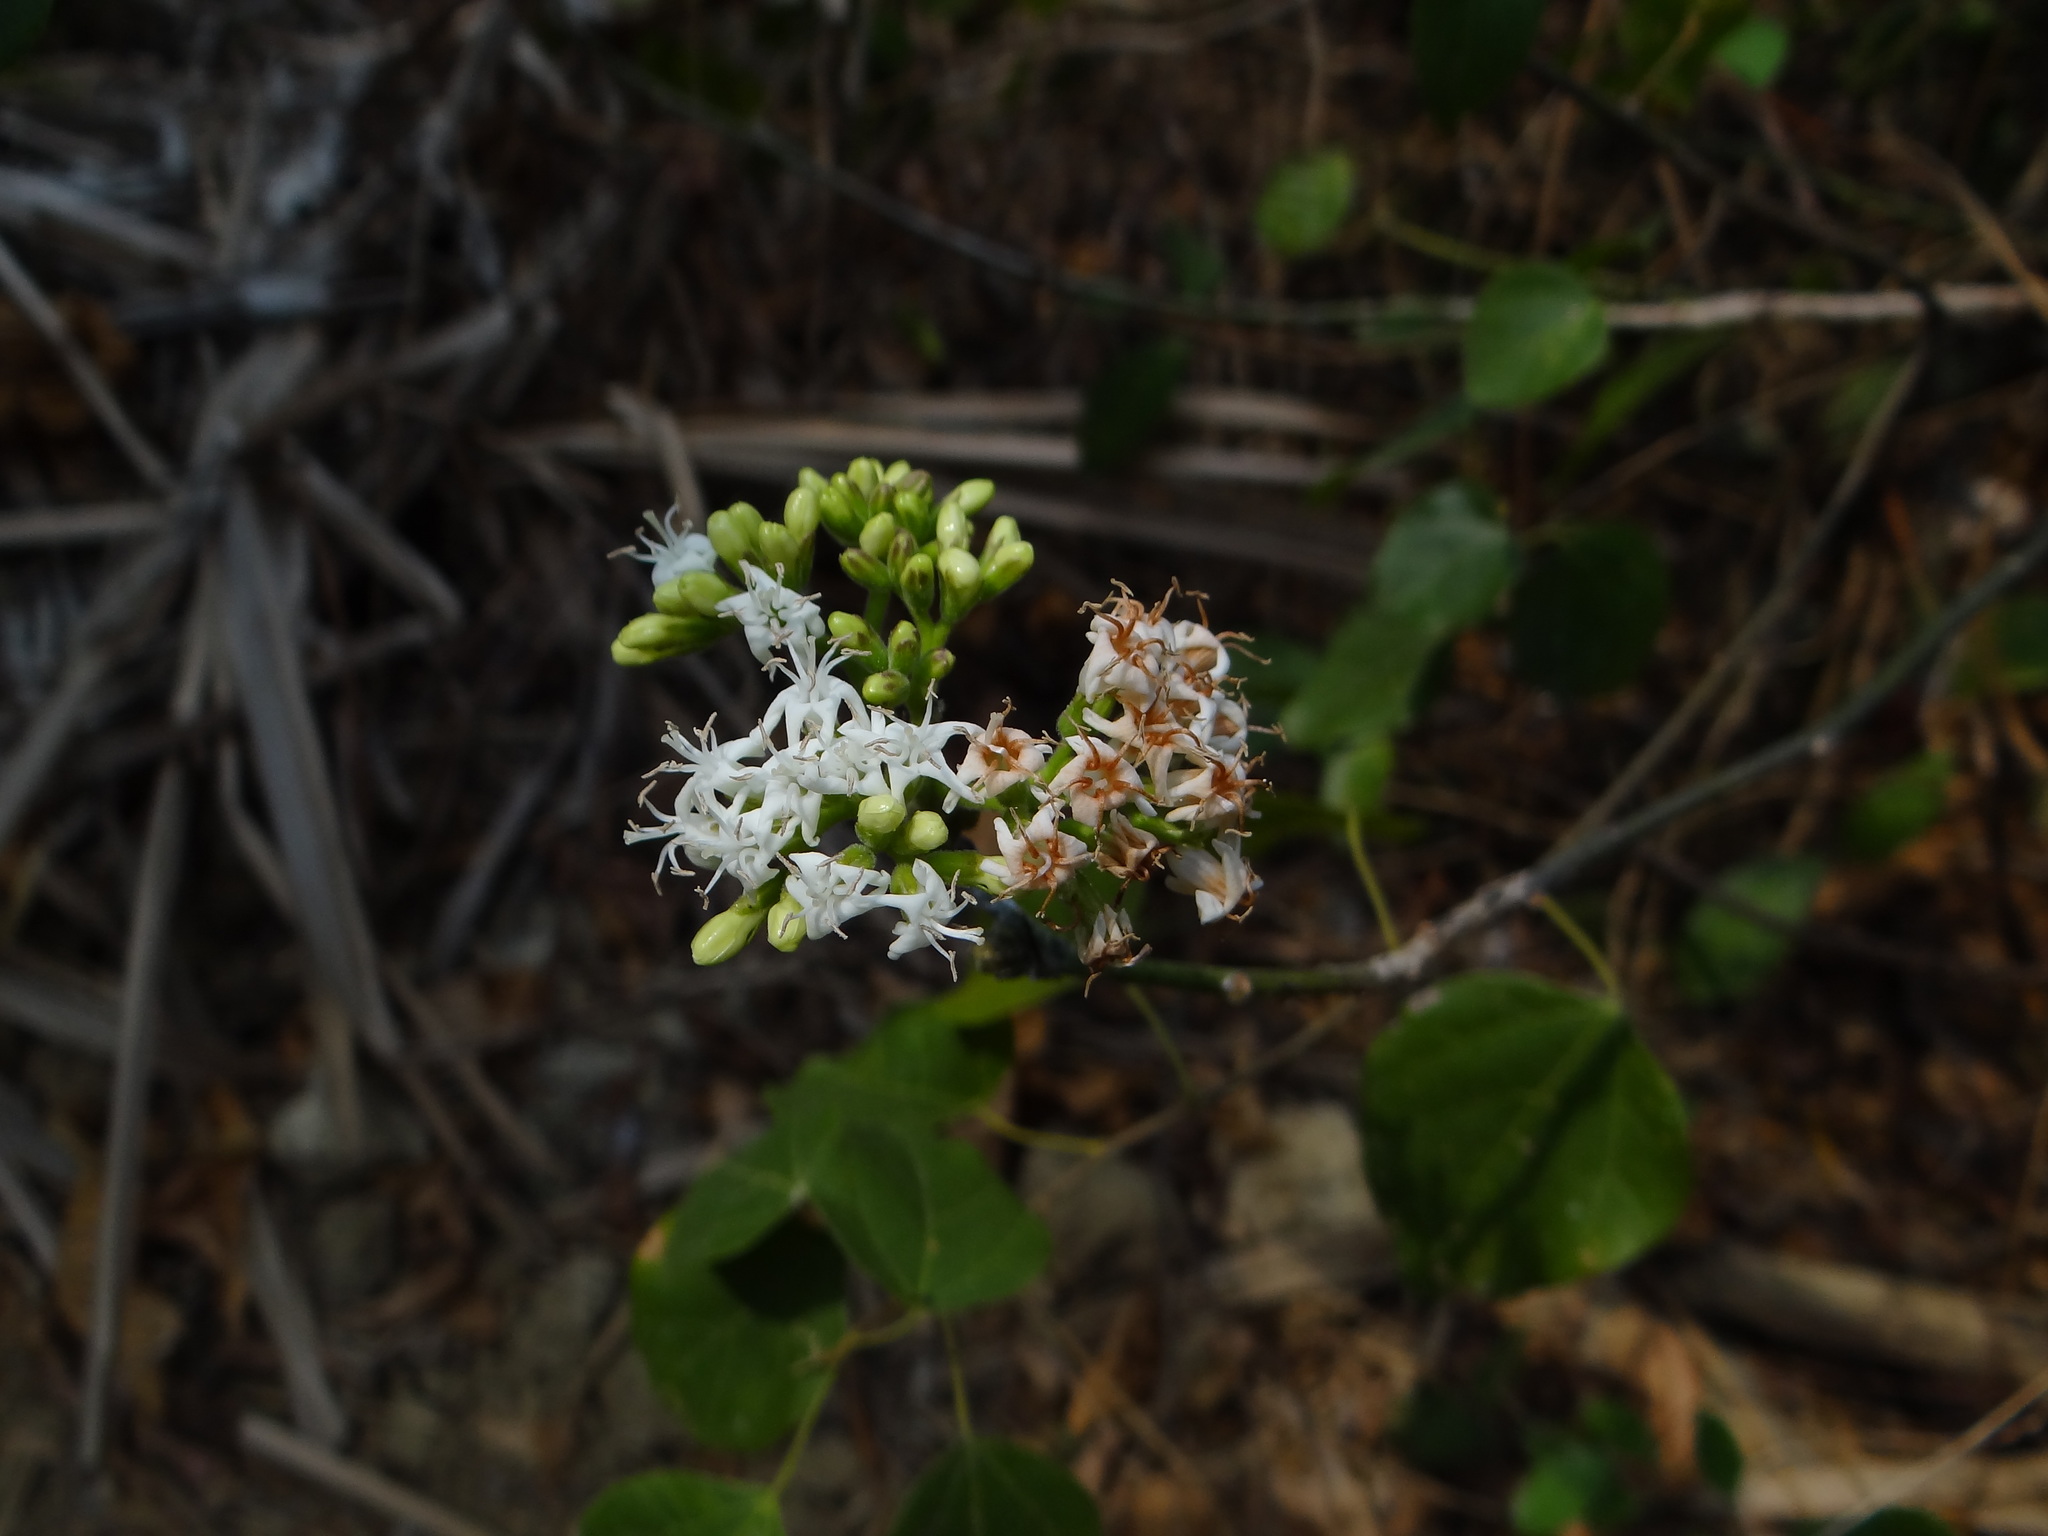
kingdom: Plantae
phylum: Tracheophyta
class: Magnoliopsida
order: Boraginales
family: Ehretiaceae
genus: Ehretia
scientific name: Ehretia resinosa
